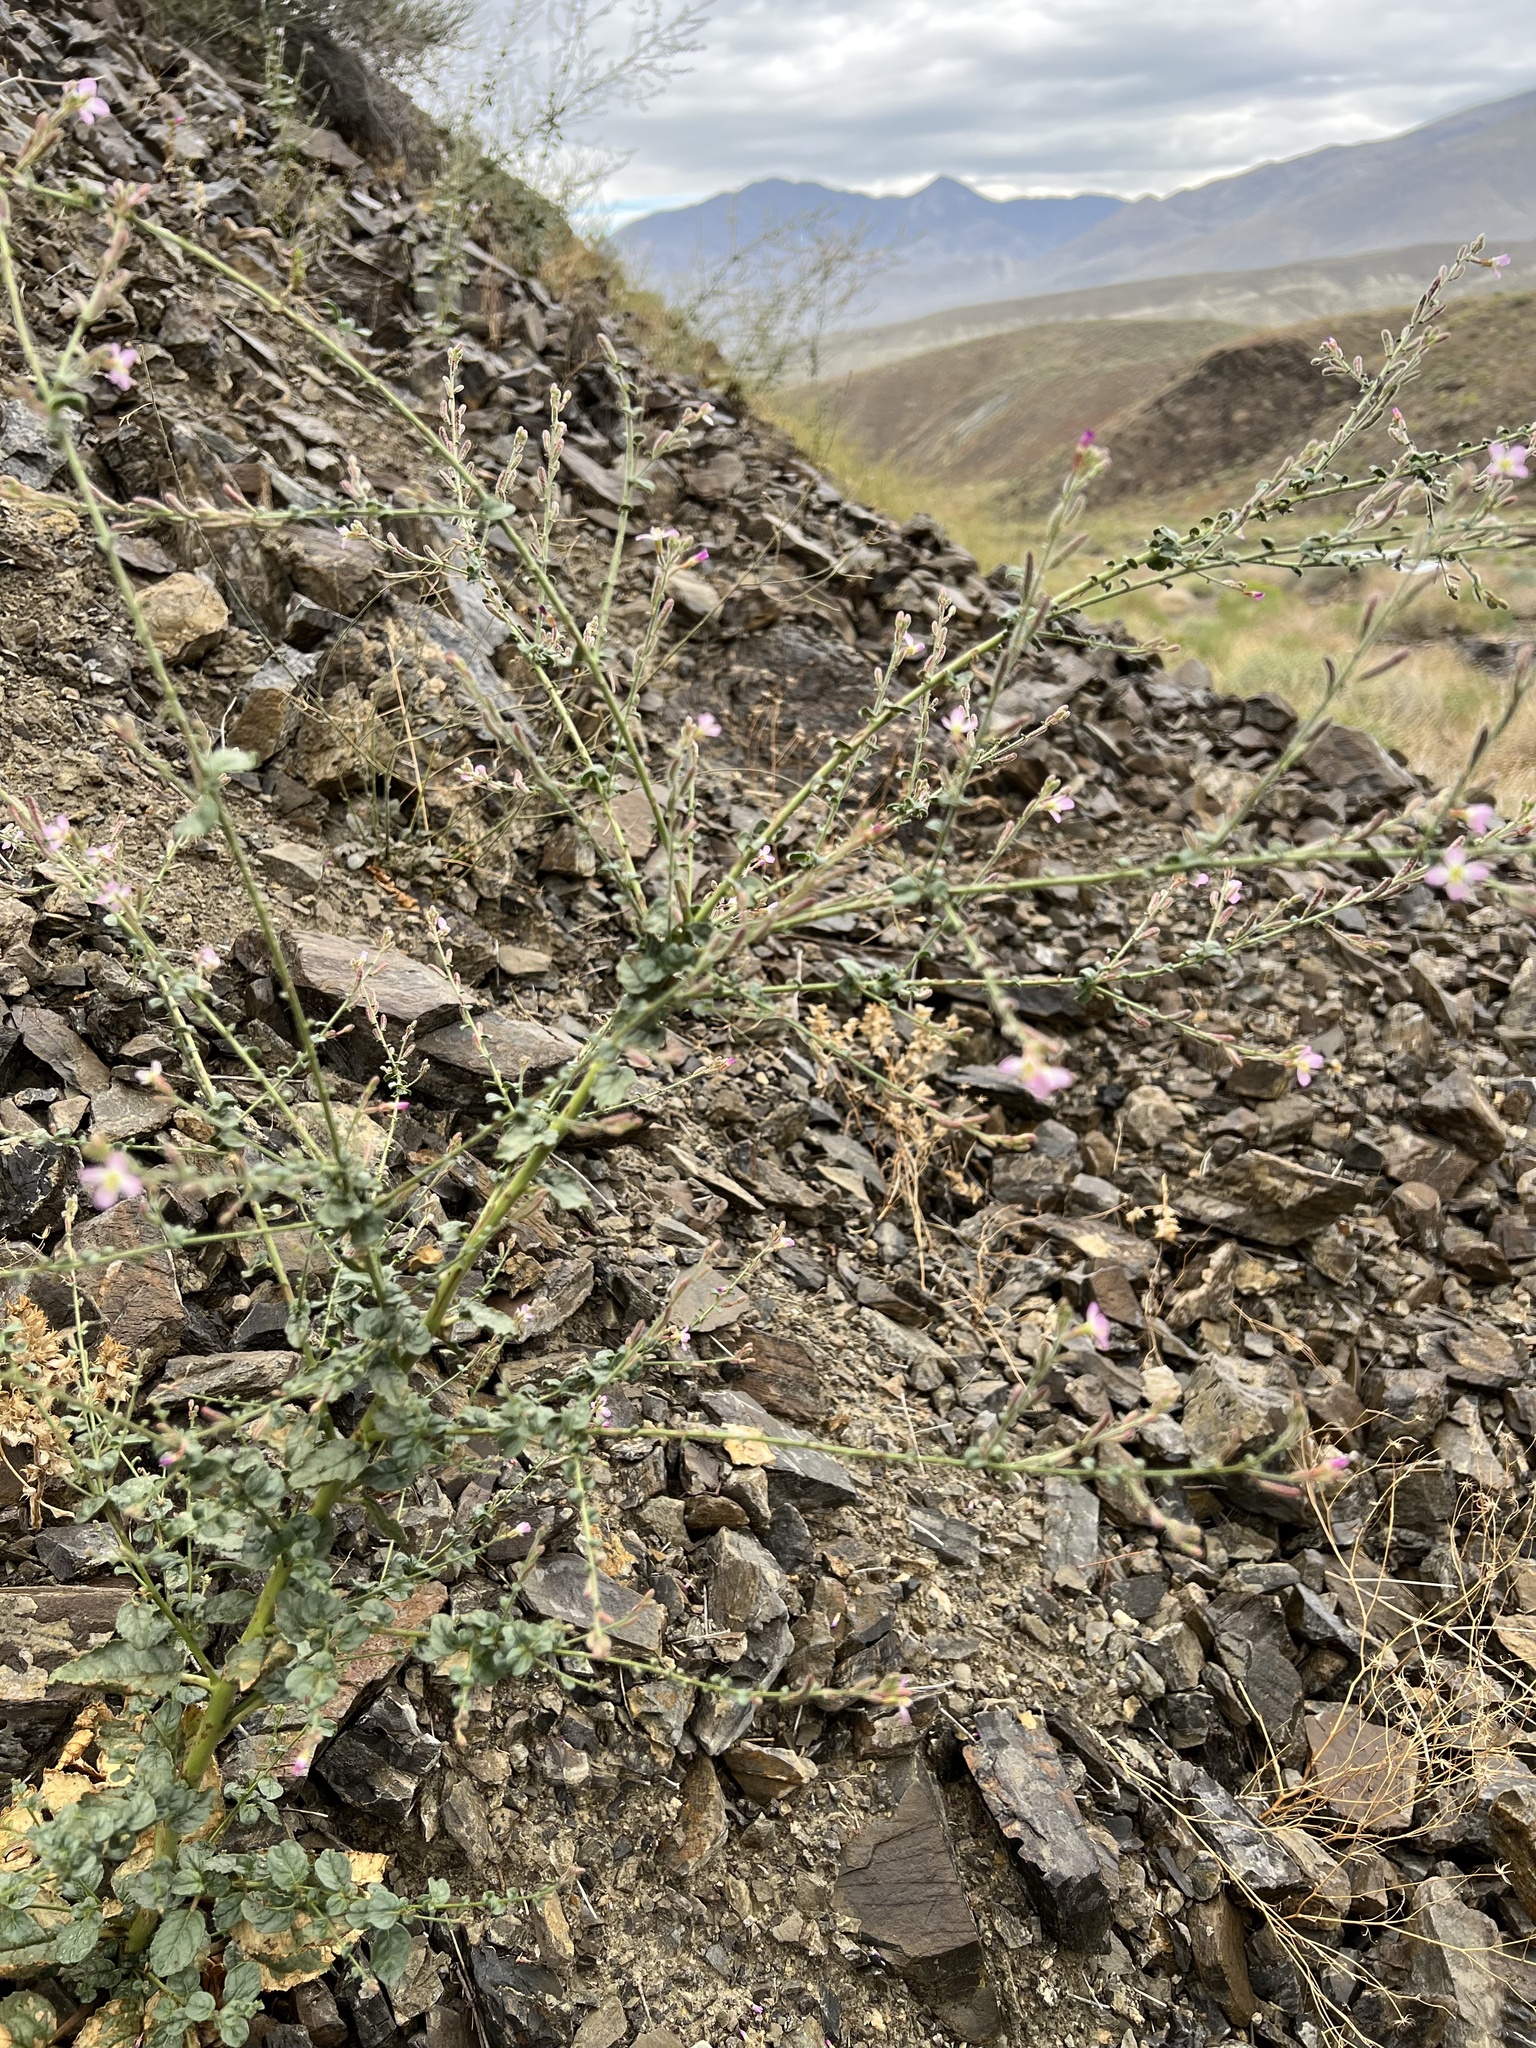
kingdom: Plantae
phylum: Tracheophyta
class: Magnoliopsida
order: Myrtales
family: Onagraceae
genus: Chylismia
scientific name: Chylismia heterochroma
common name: Shockley's evening primrose
